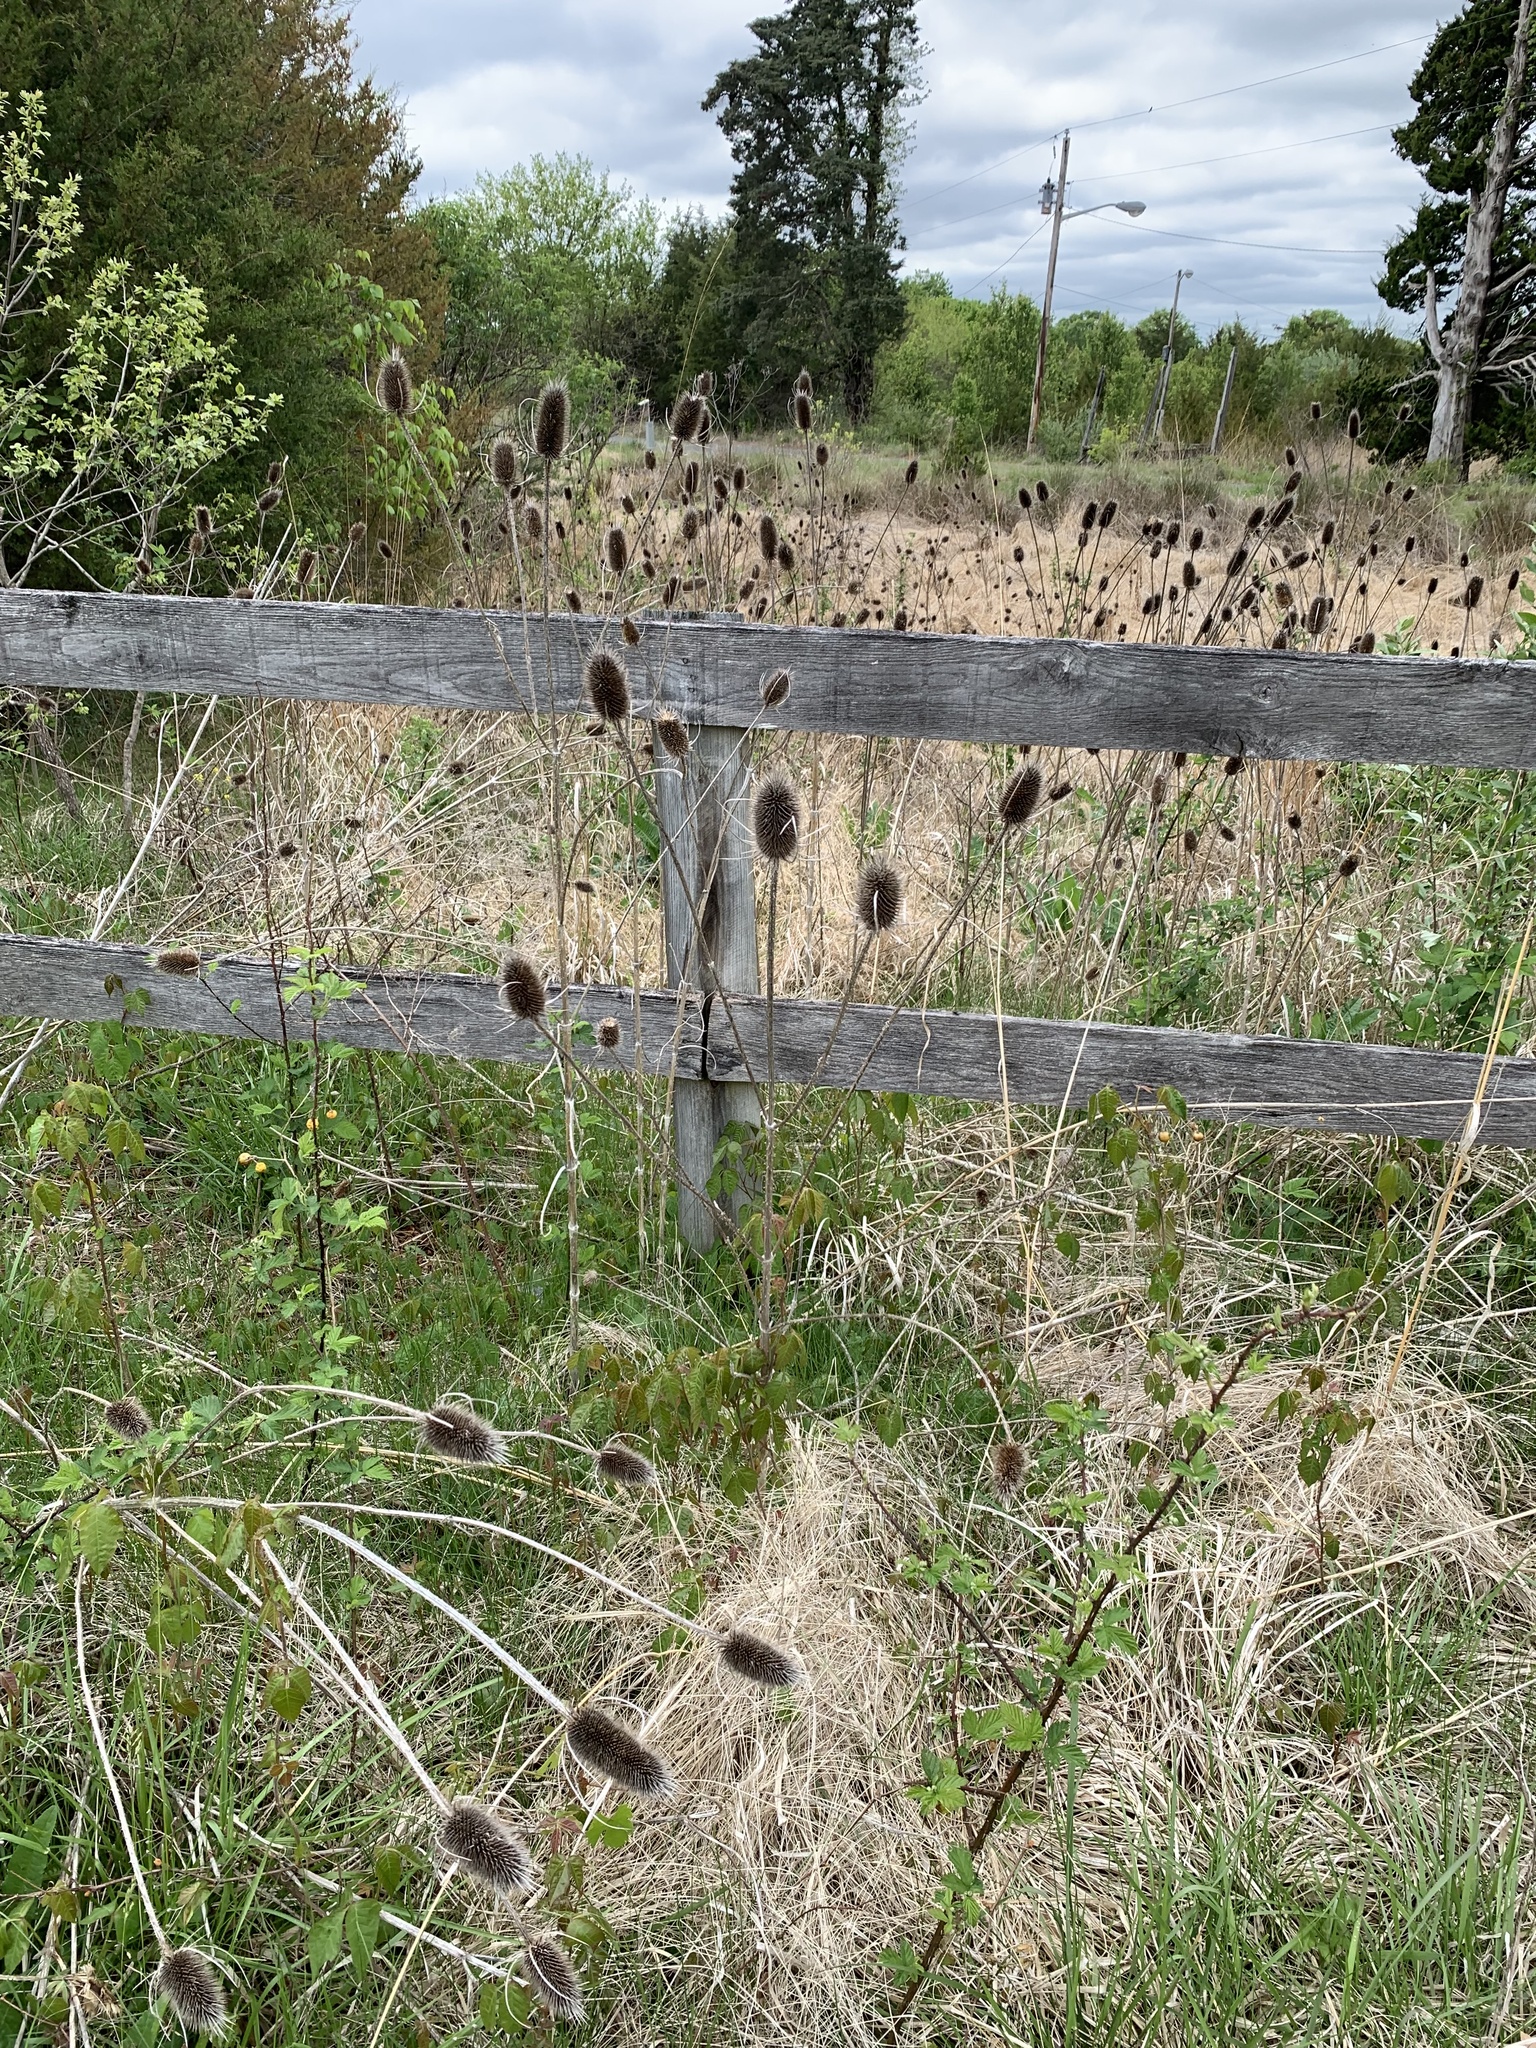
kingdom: Plantae
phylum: Tracheophyta
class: Magnoliopsida
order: Dipsacales
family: Caprifoliaceae
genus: Dipsacus
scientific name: Dipsacus fullonum
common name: Teasel
